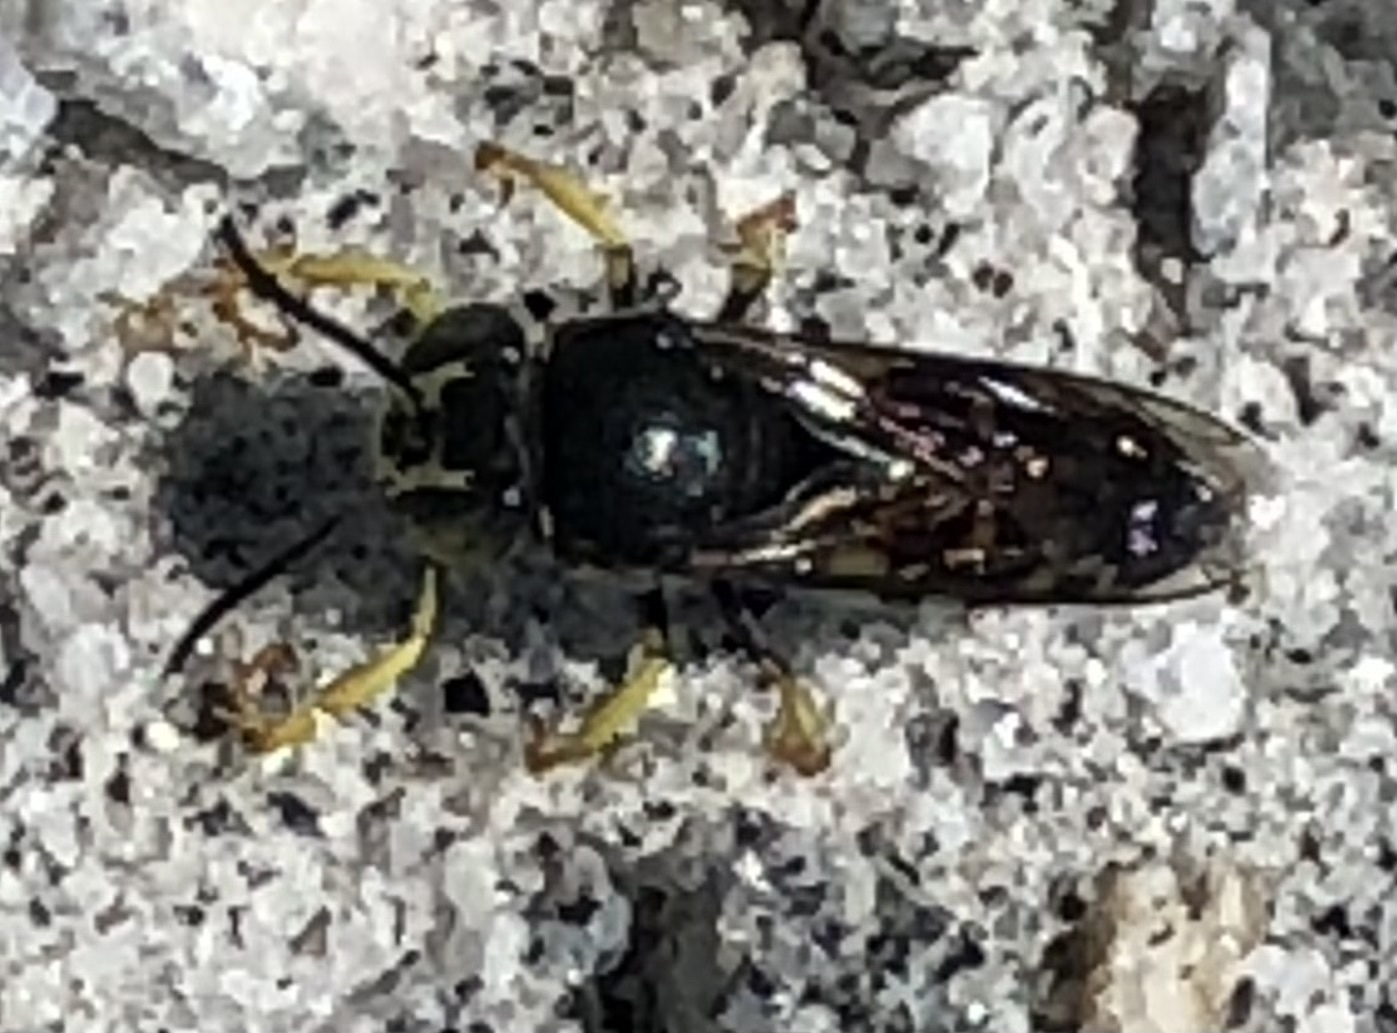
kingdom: Animalia
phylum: Arthropoda
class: Insecta
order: Hymenoptera
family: Crabronidae
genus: Bicyrtes
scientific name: Bicyrtes quadrifasciatus
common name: Four-banded stink bug hunter wasp
